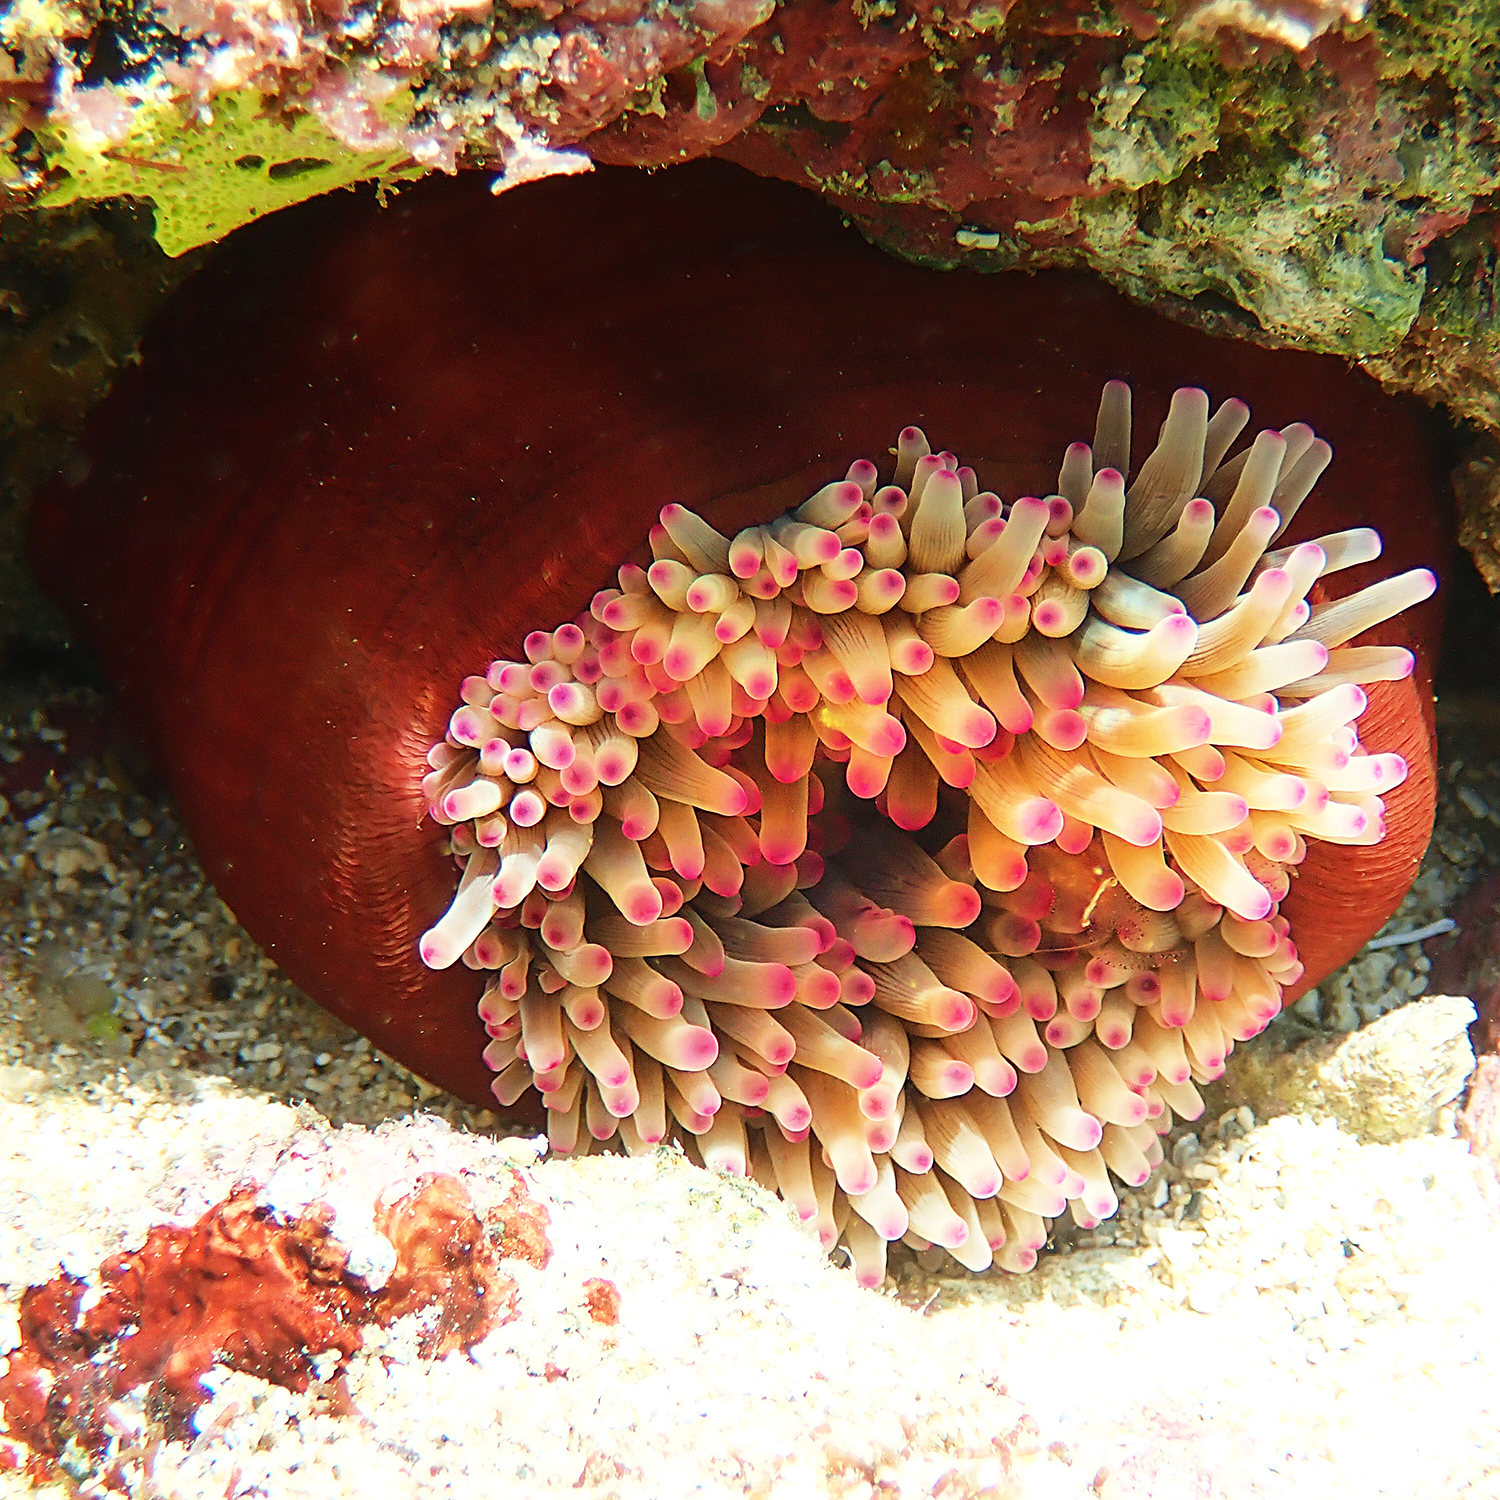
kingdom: Animalia
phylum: Cnidaria
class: Anthozoa
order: Actiniaria
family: Actiniidae
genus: Entacmaea
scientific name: Entacmaea quadricolor
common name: Bulb tentacle sea anemone
